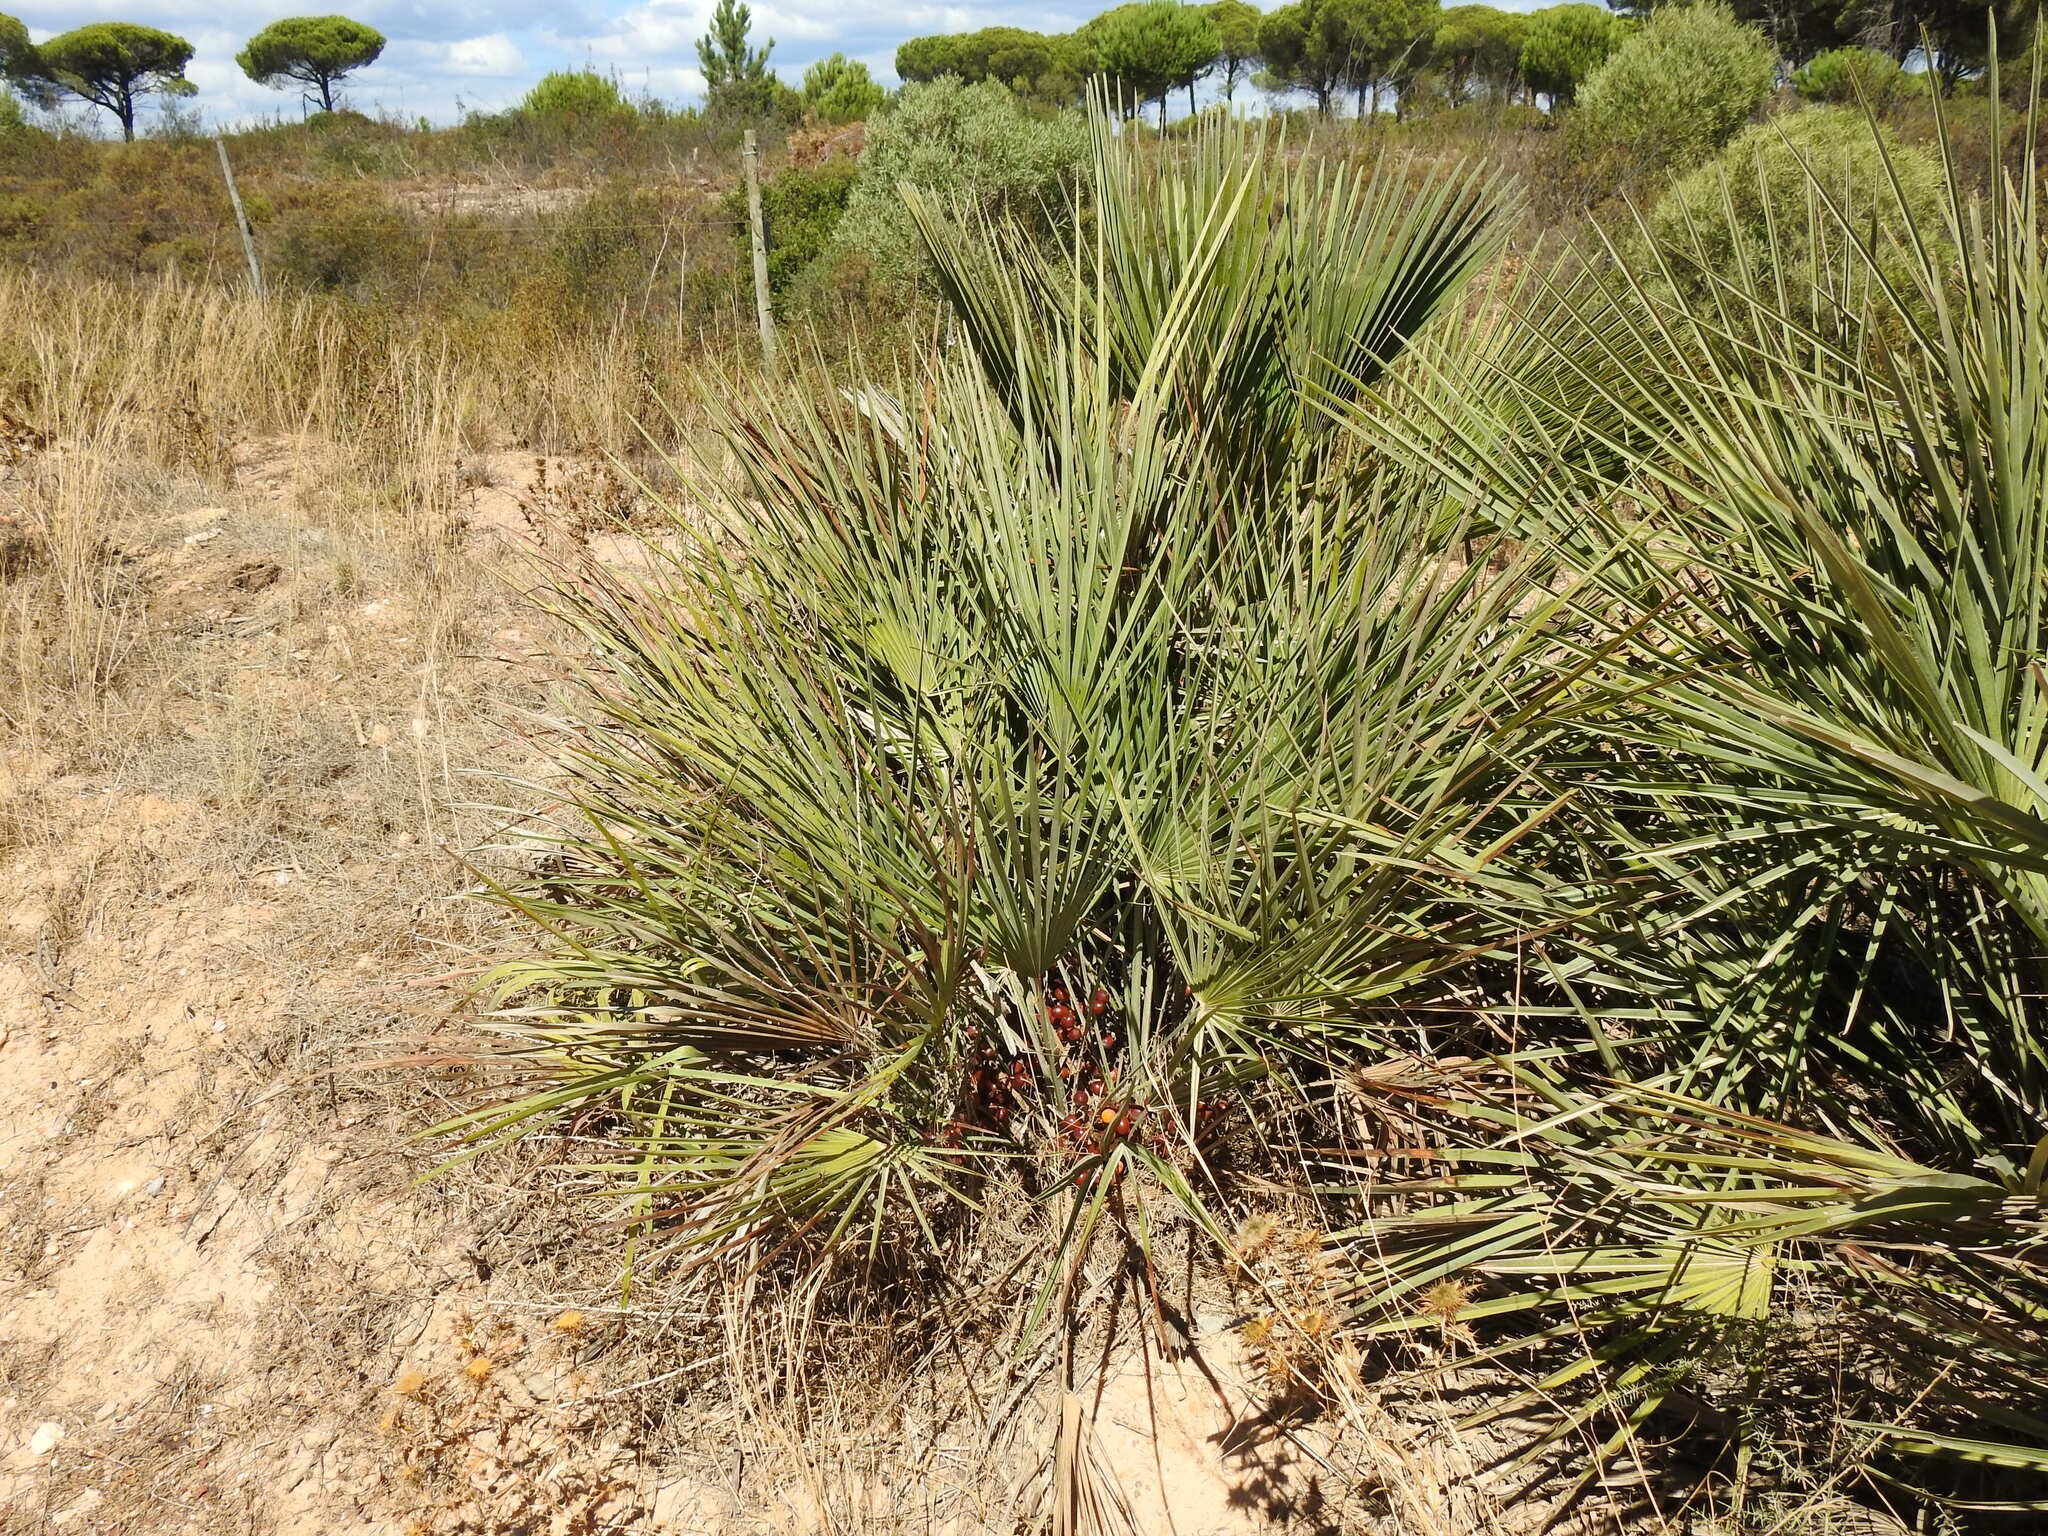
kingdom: Plantae
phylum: Tracheophyta
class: Liliopsida
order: Arecales
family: Arecaceae
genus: Chamaerops
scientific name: Chamaerops humilis
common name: Dwarf fan palm
